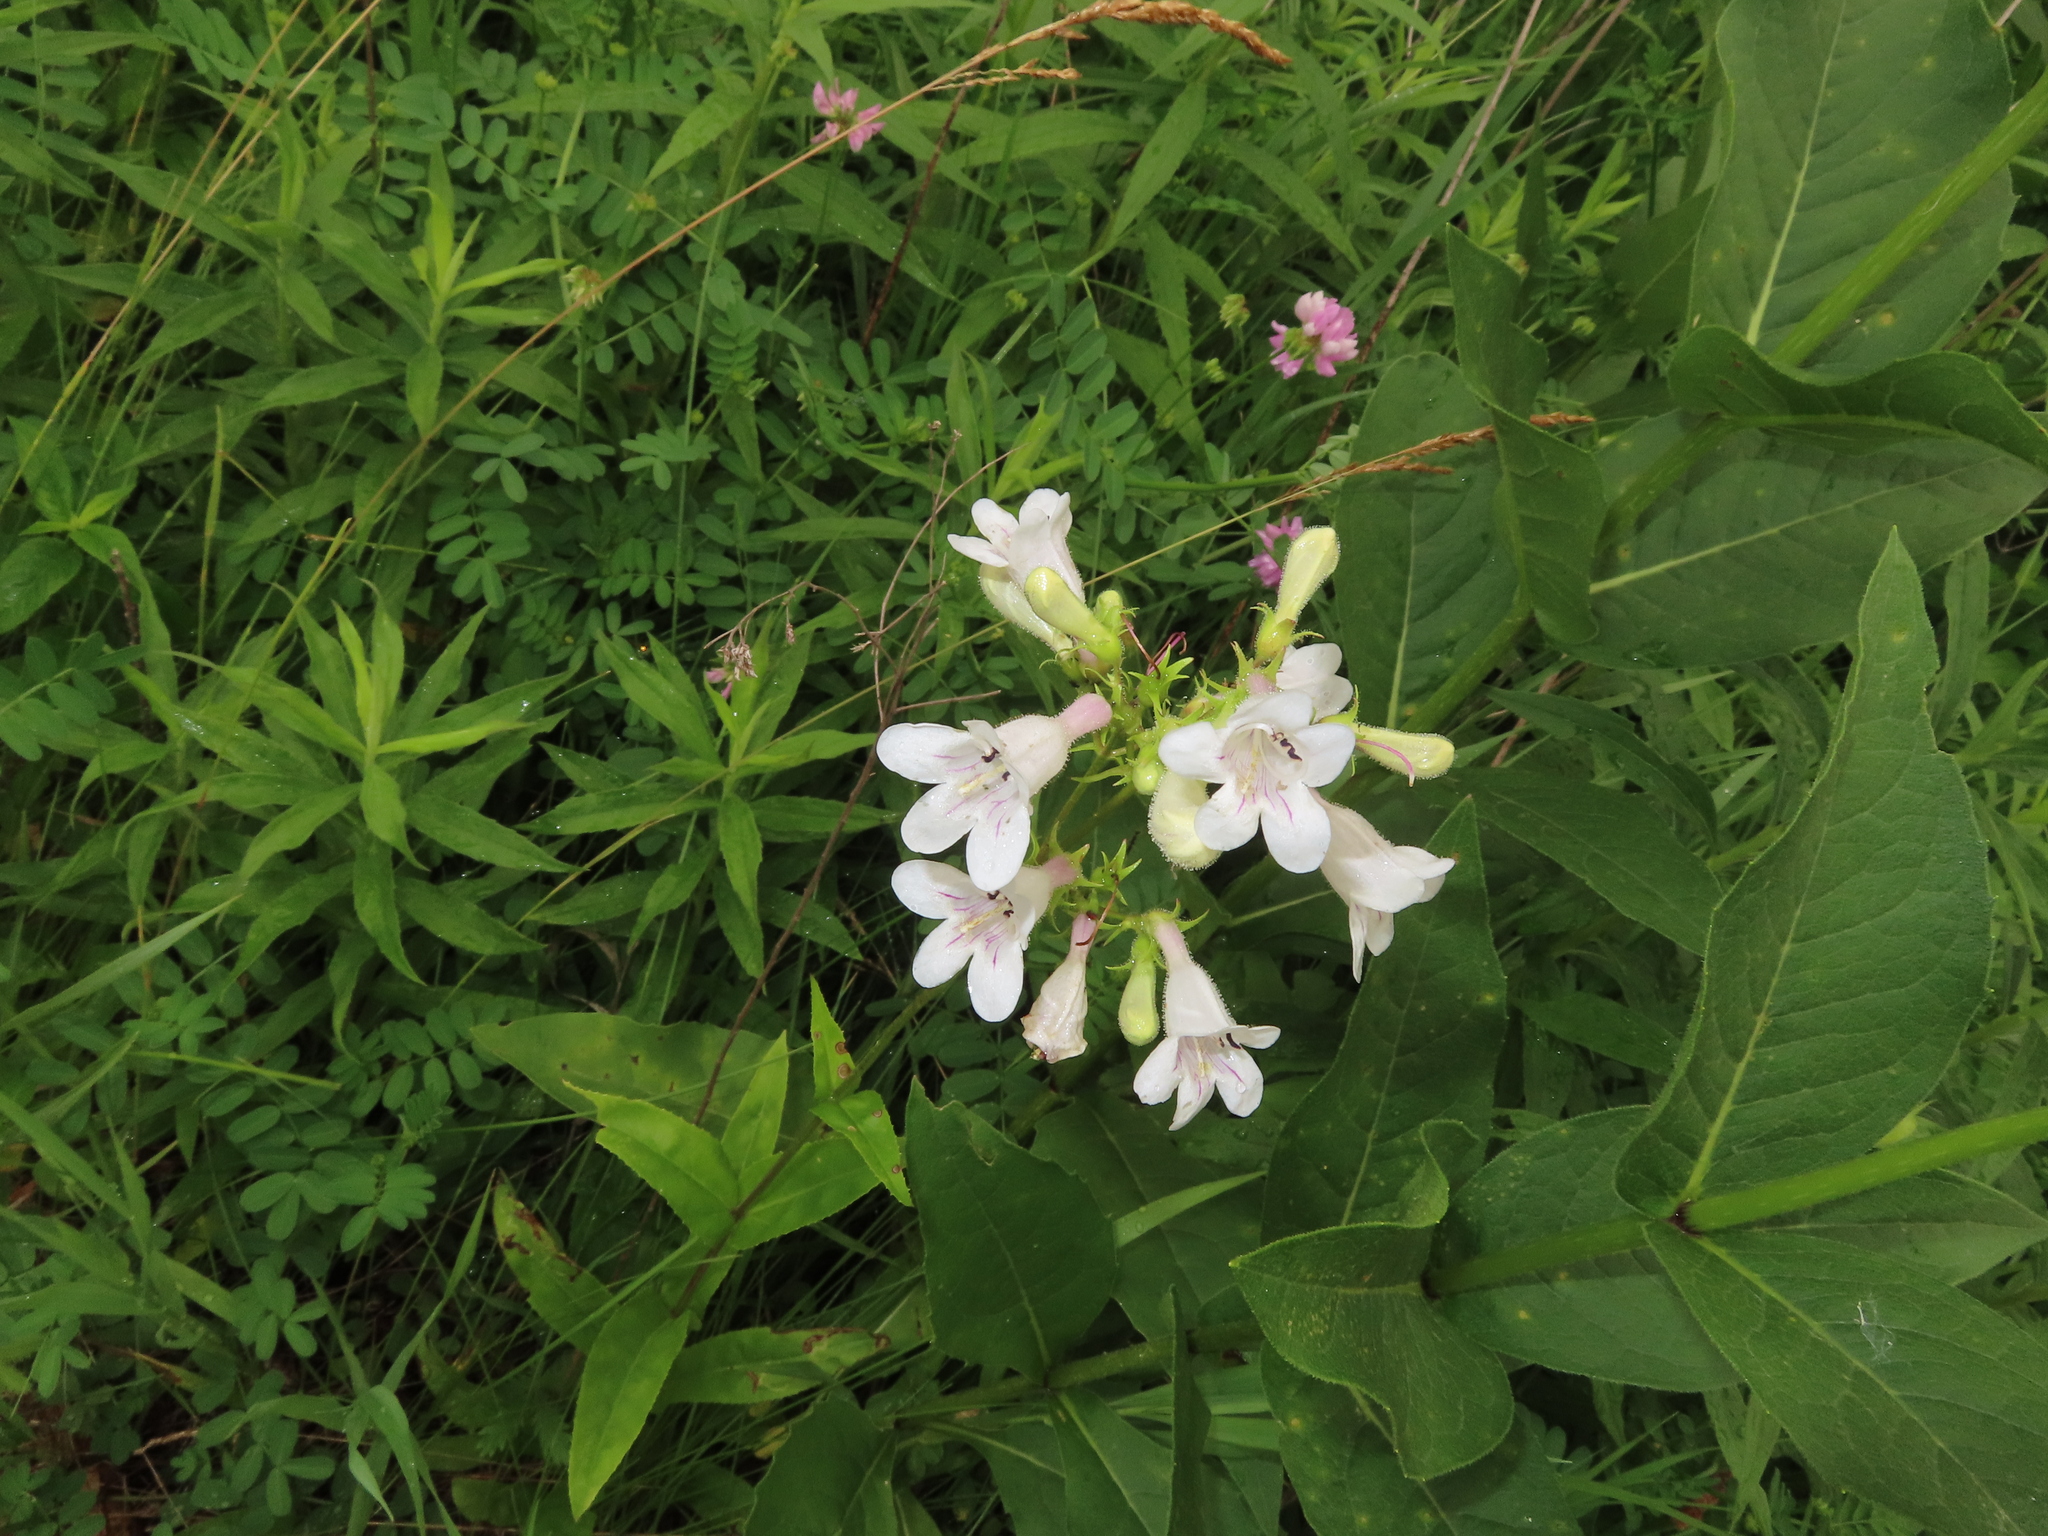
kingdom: Plantae
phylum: Tracheophyta
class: Magnoliopsida
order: Lamiales
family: Plantaginaceae
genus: Penstemon
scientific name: Penstemon digitalis
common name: Foxglove beardtongue
